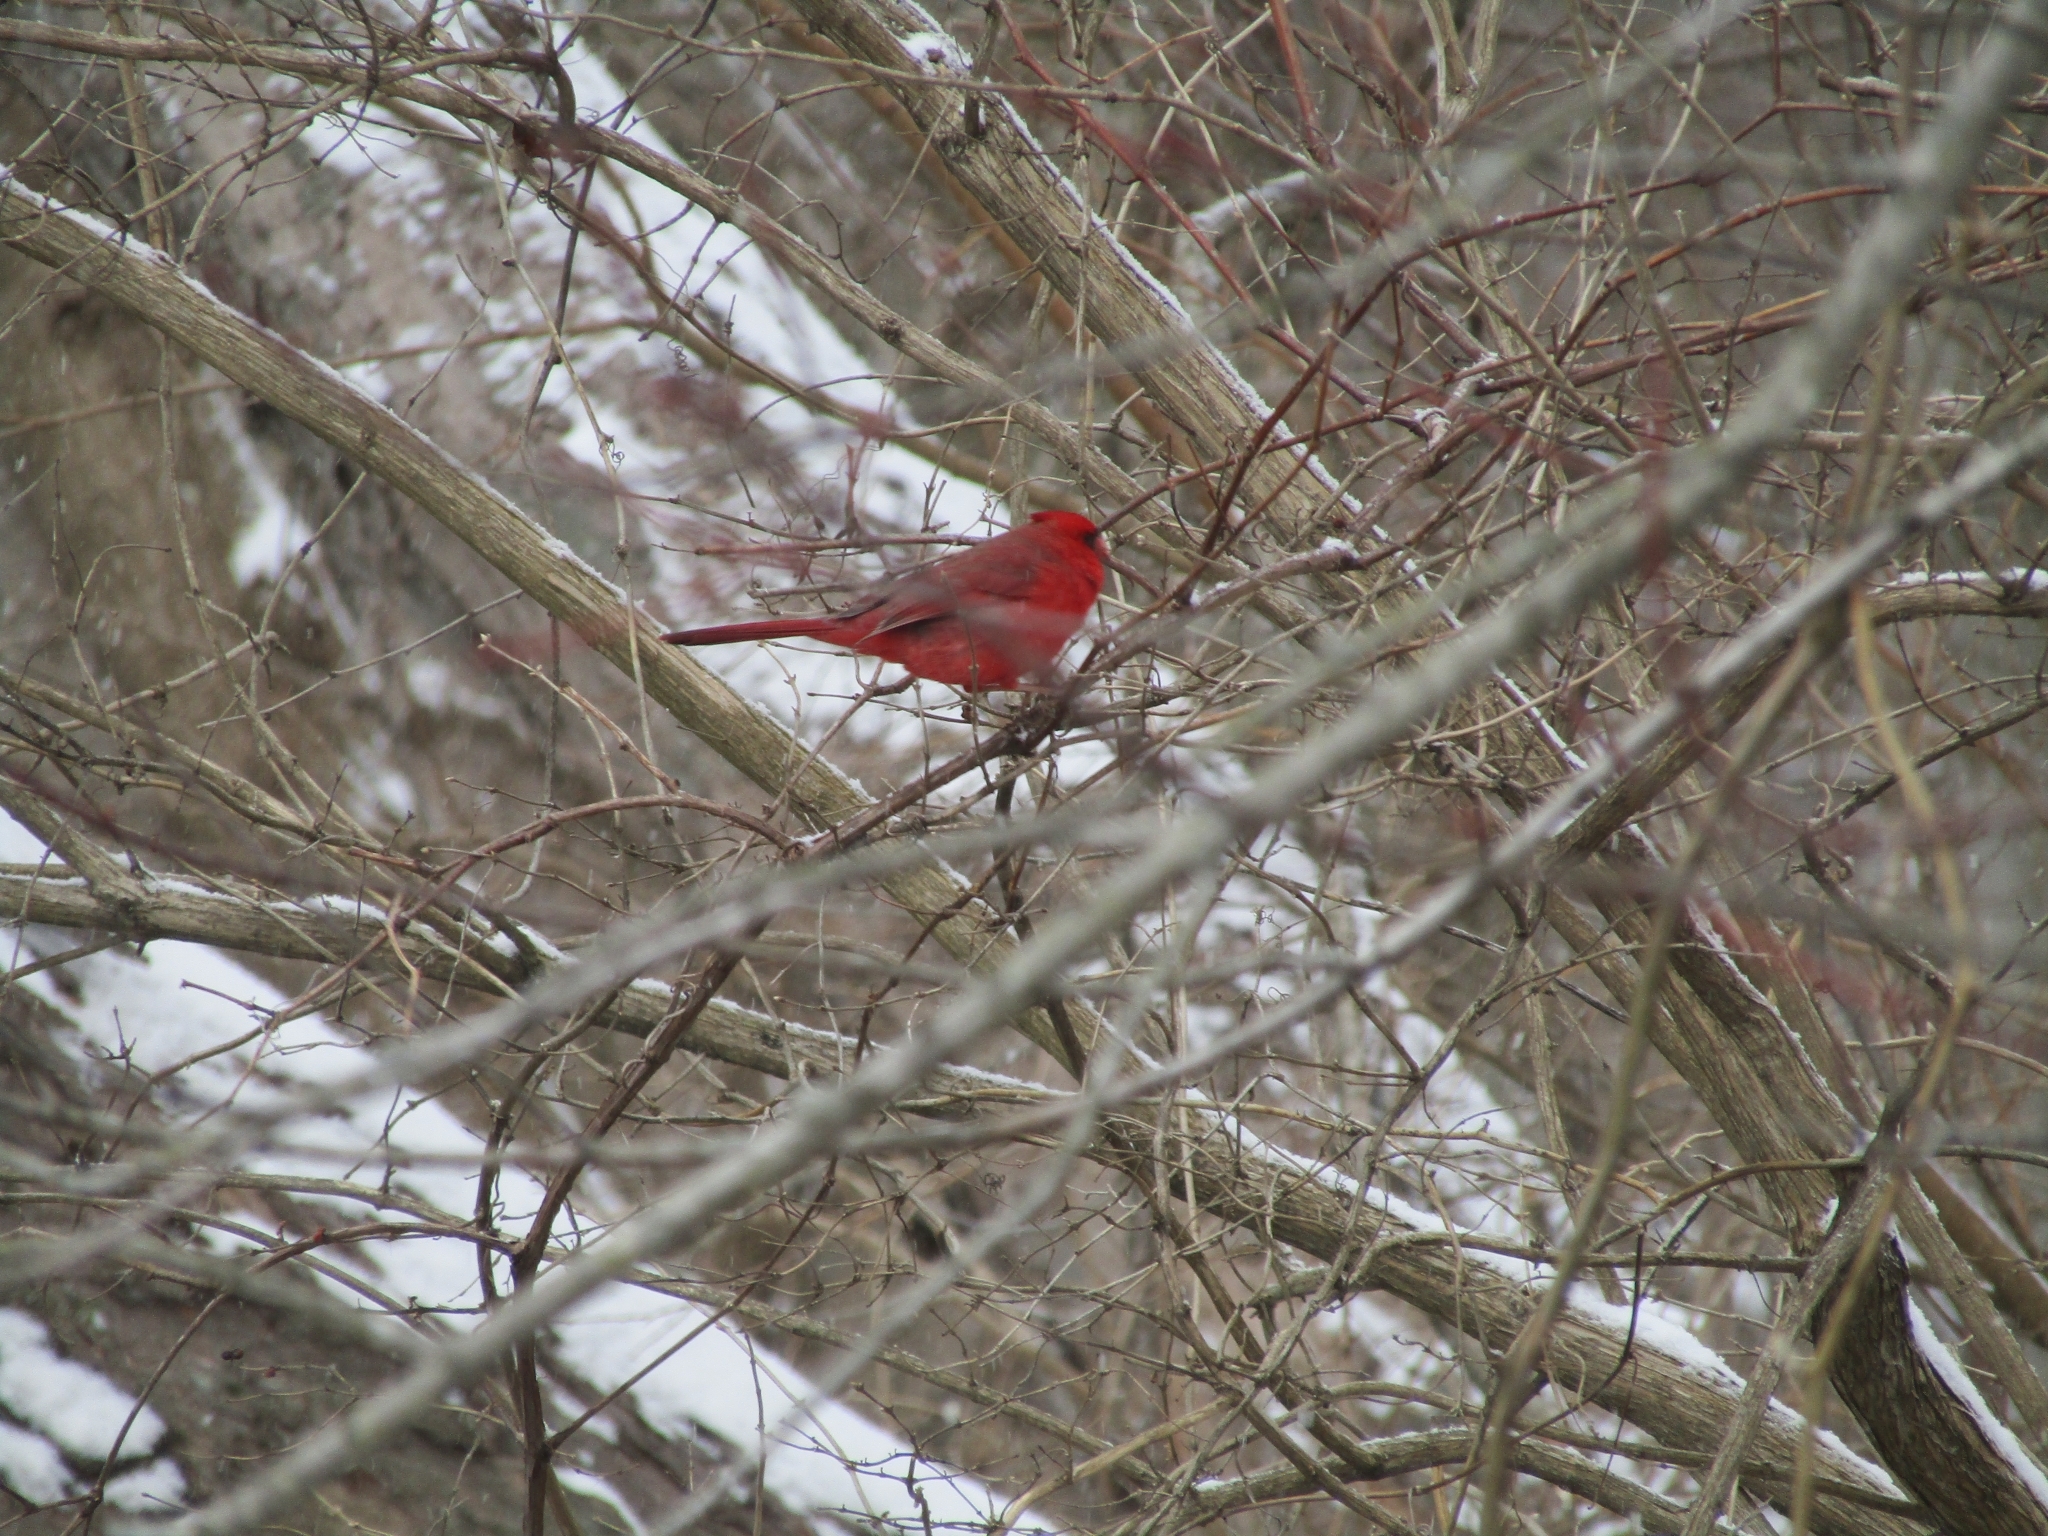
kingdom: Animalia
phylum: Chordata
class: Aves
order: Passeriformes
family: Cardinalidae
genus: Cardinalis
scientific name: Cardinalis cardinalis
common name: Northern cardinal
